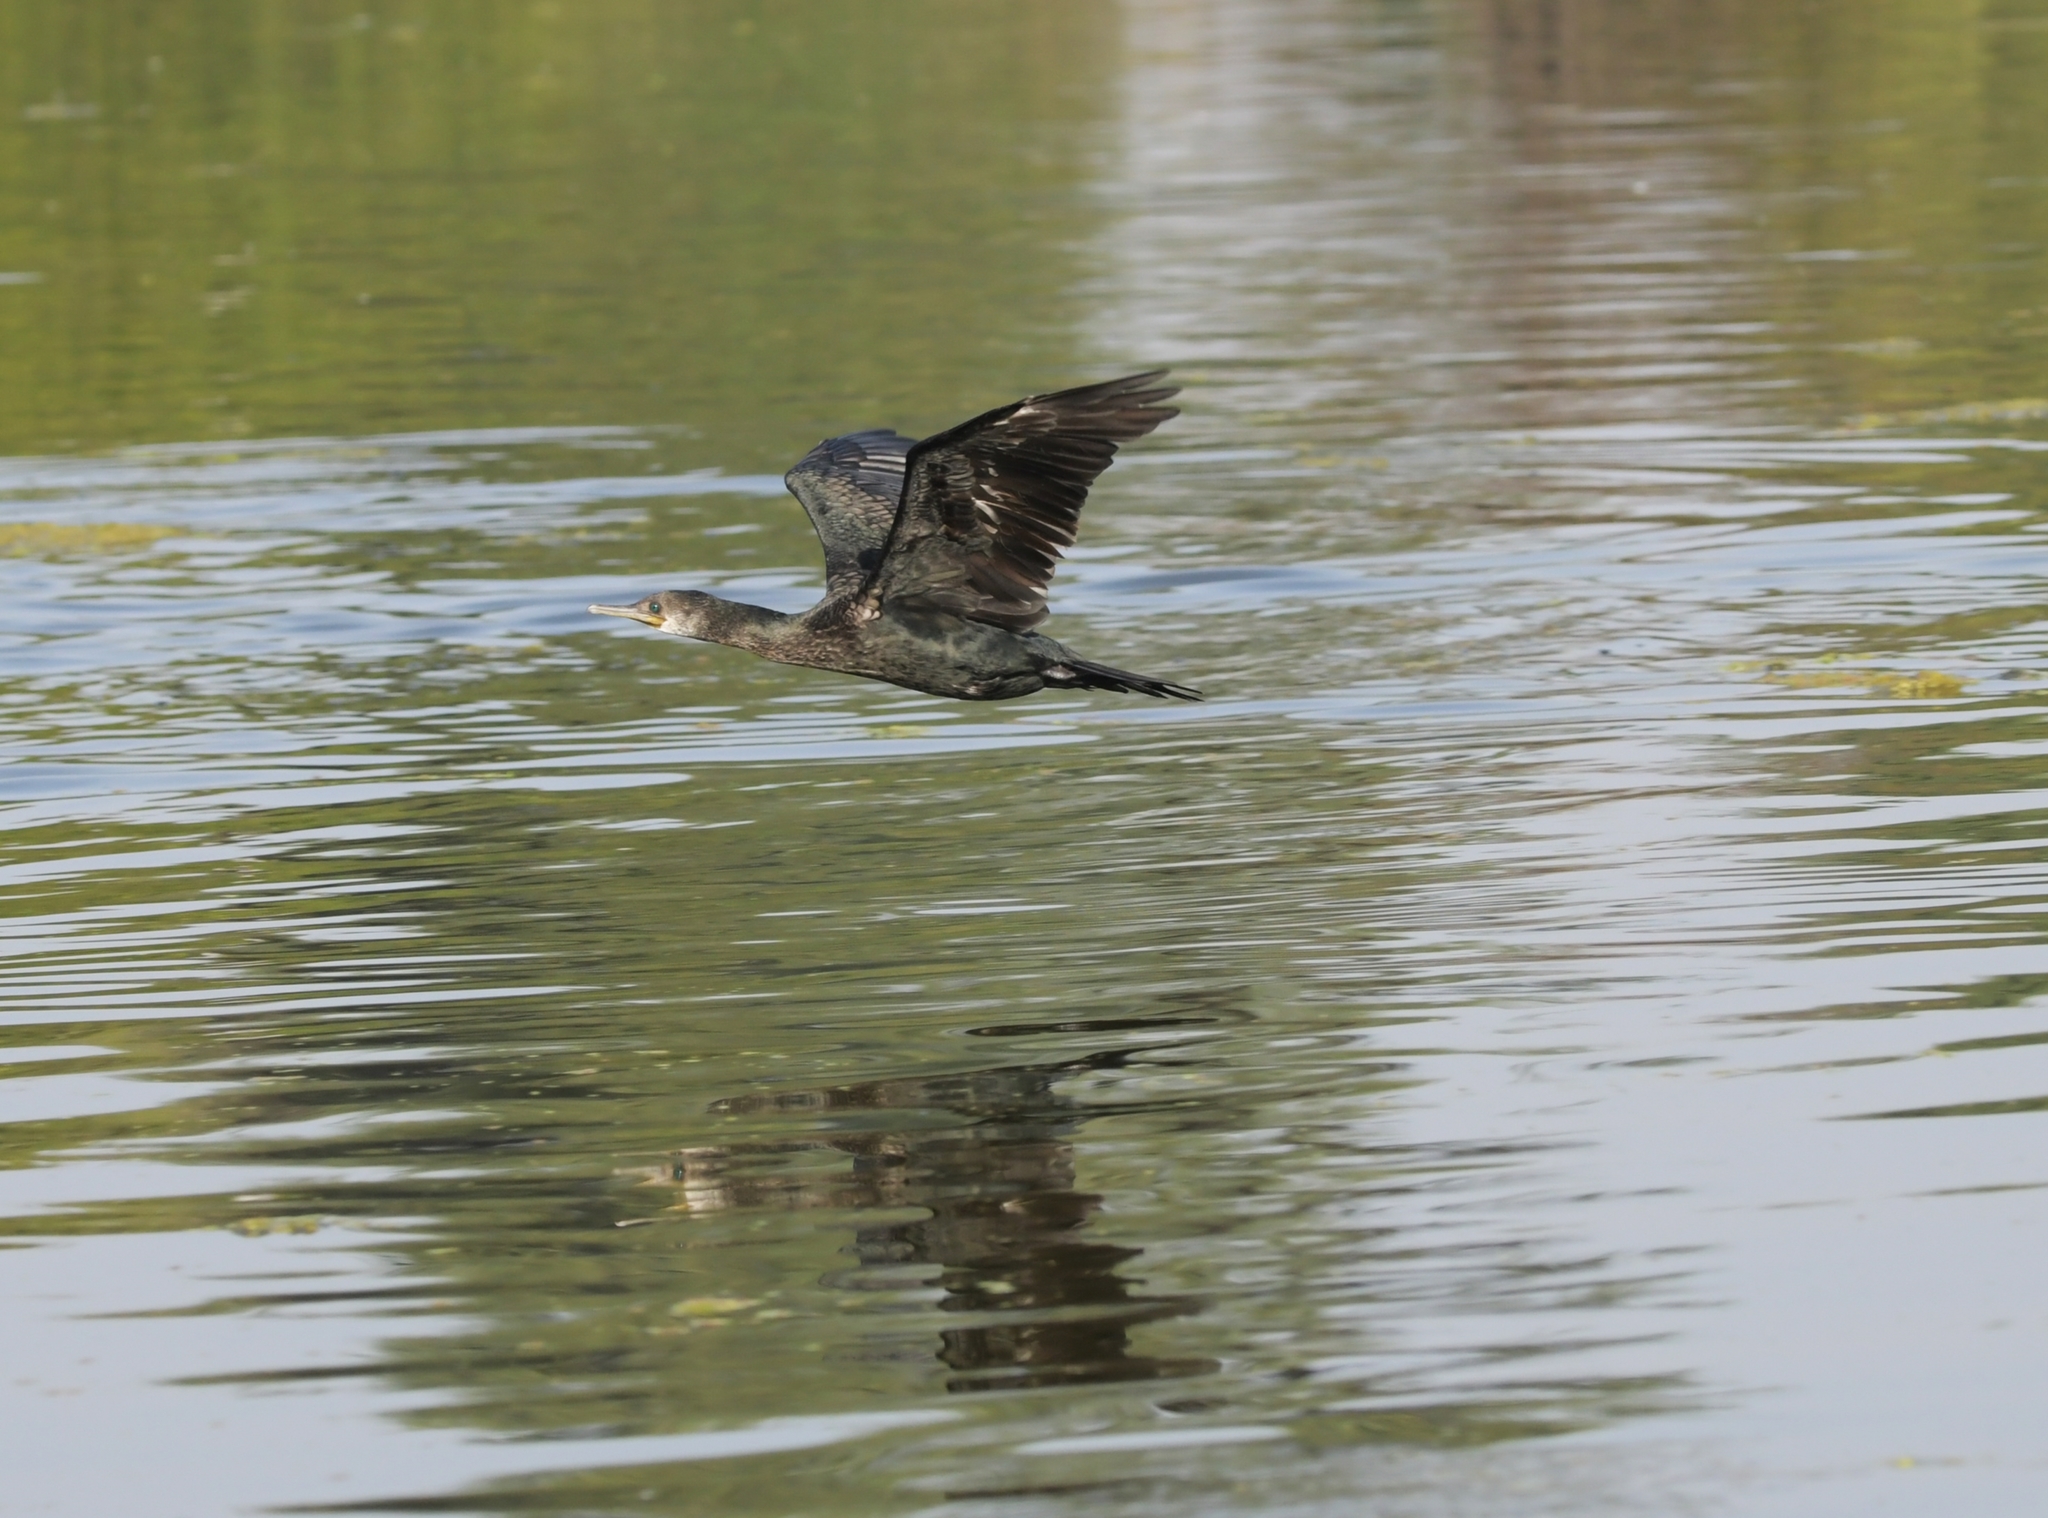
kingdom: Animalia
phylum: Chordata
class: Aves
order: Suliformes
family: Phalacrocoracidae
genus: Phalacrocorax
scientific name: Phalacrocorax fuscicollis
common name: Indian cormorant
